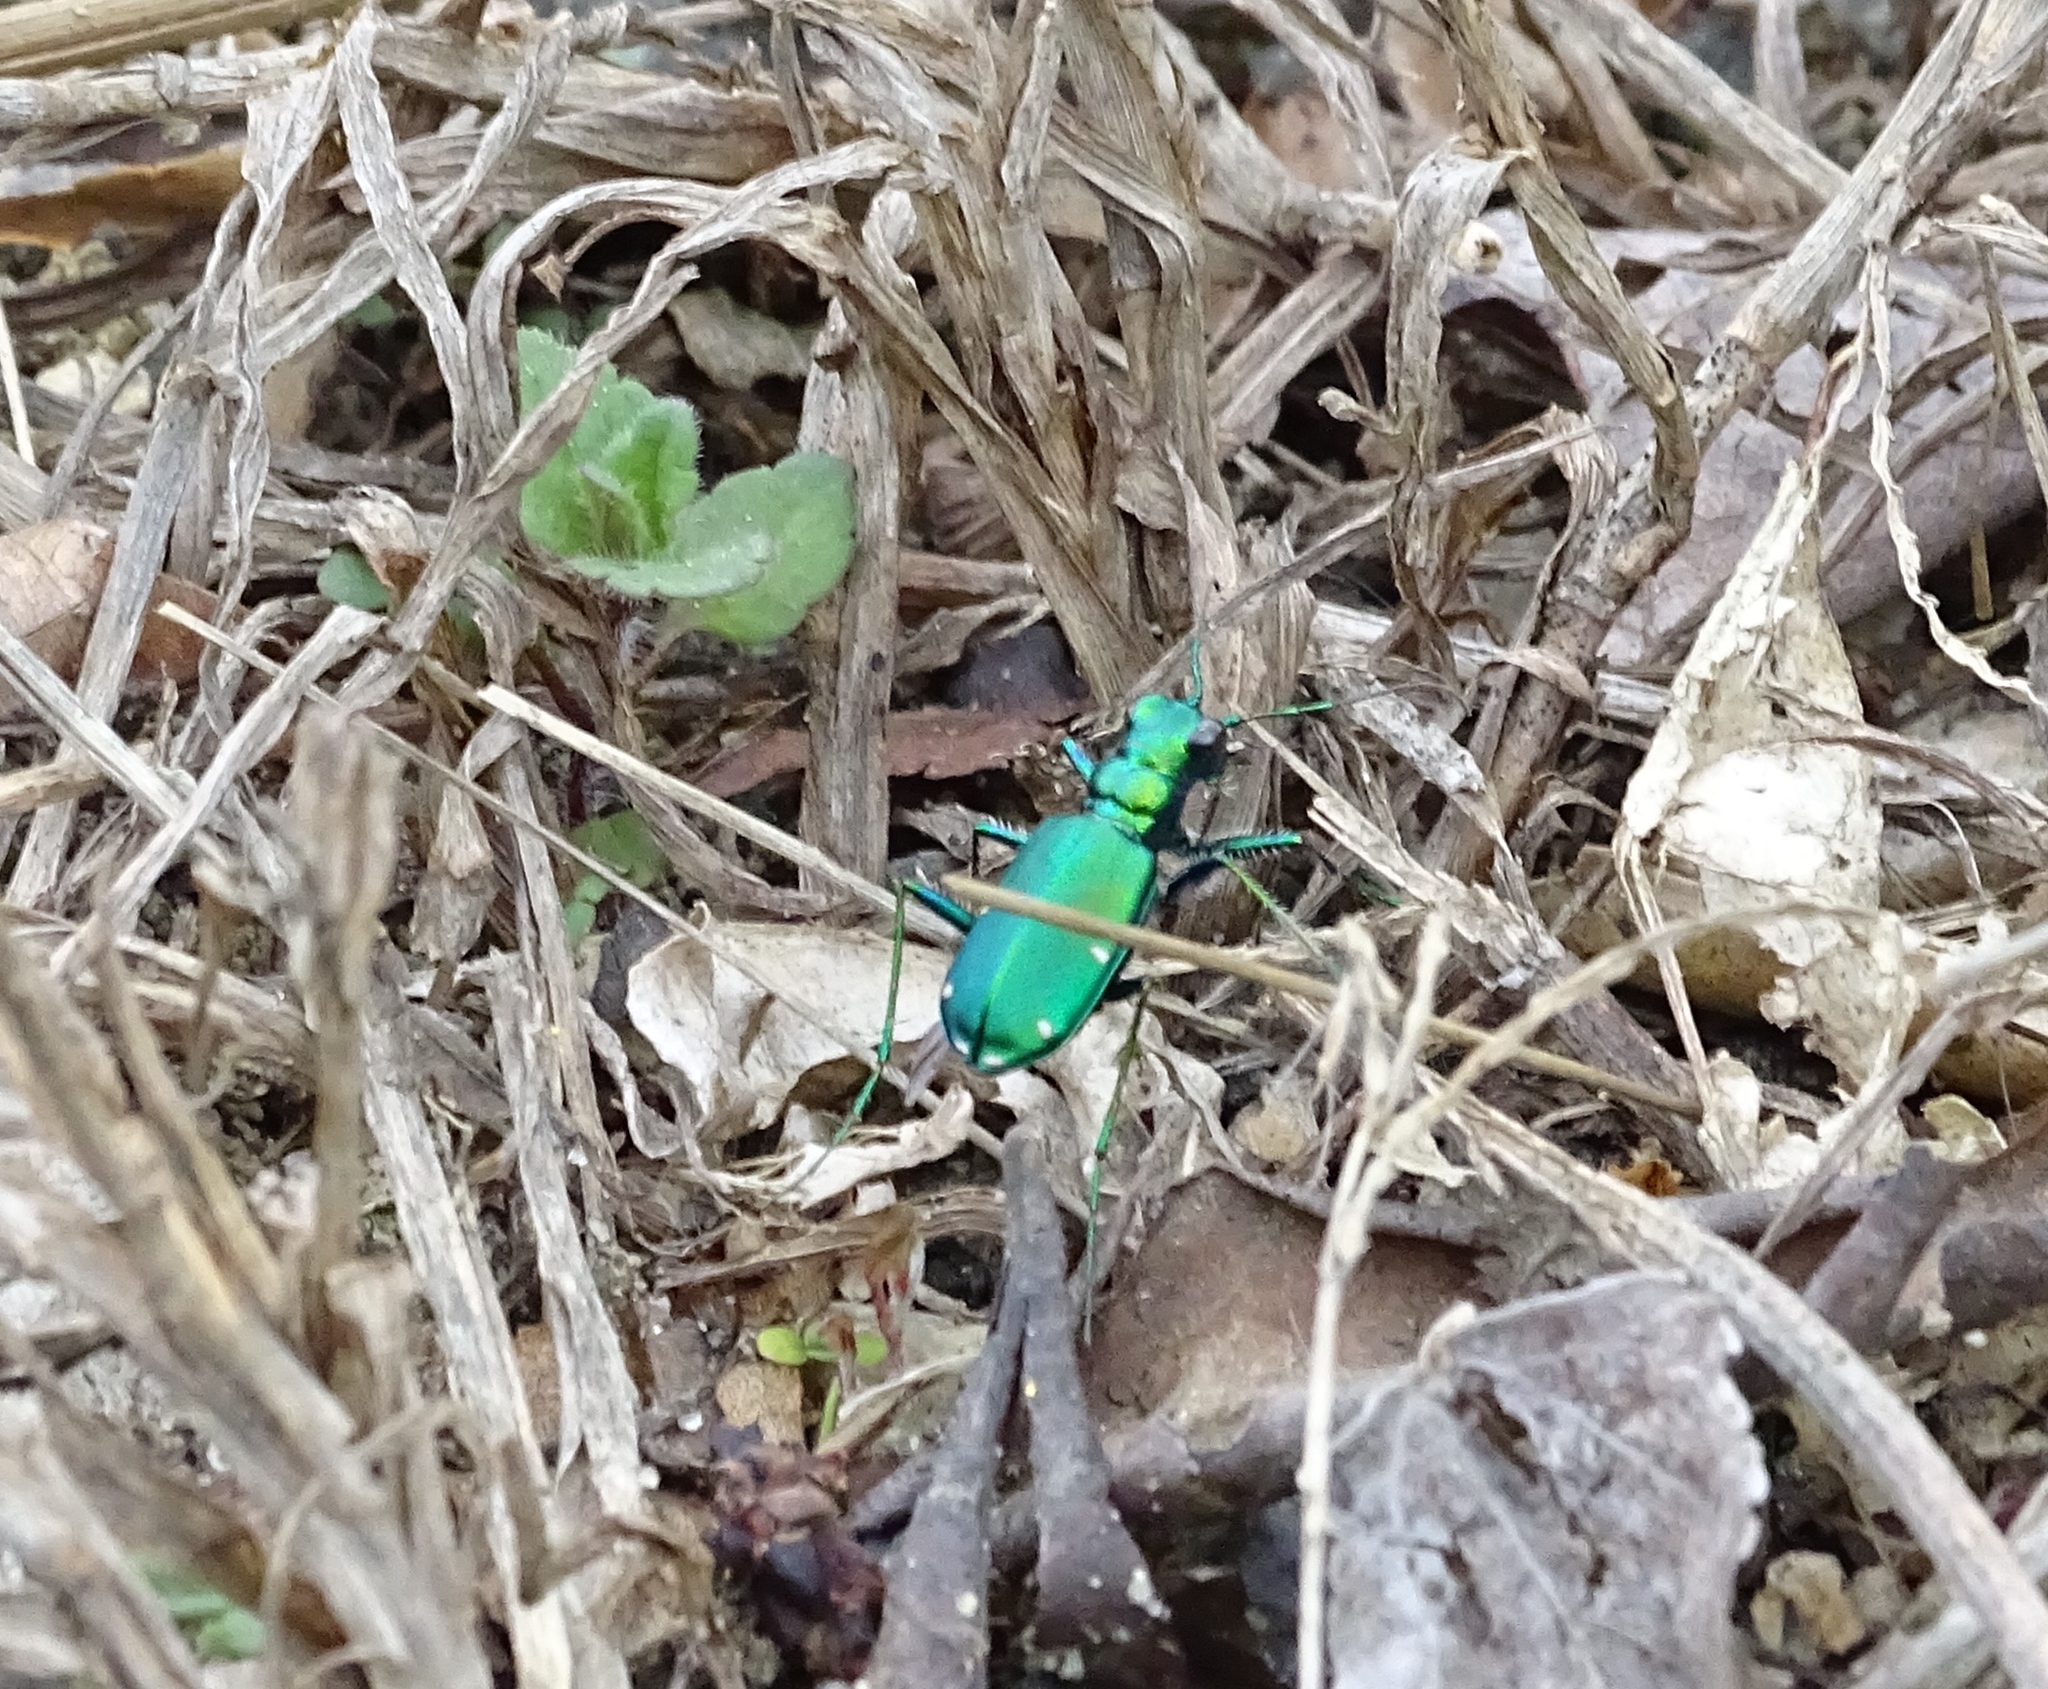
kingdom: Animalia
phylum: Arthropoda
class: Insecta
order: Coleoptera
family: Carabidae
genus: Cicindela
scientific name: Cicindela sexguttata
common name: Six-spotted tiger beetle
